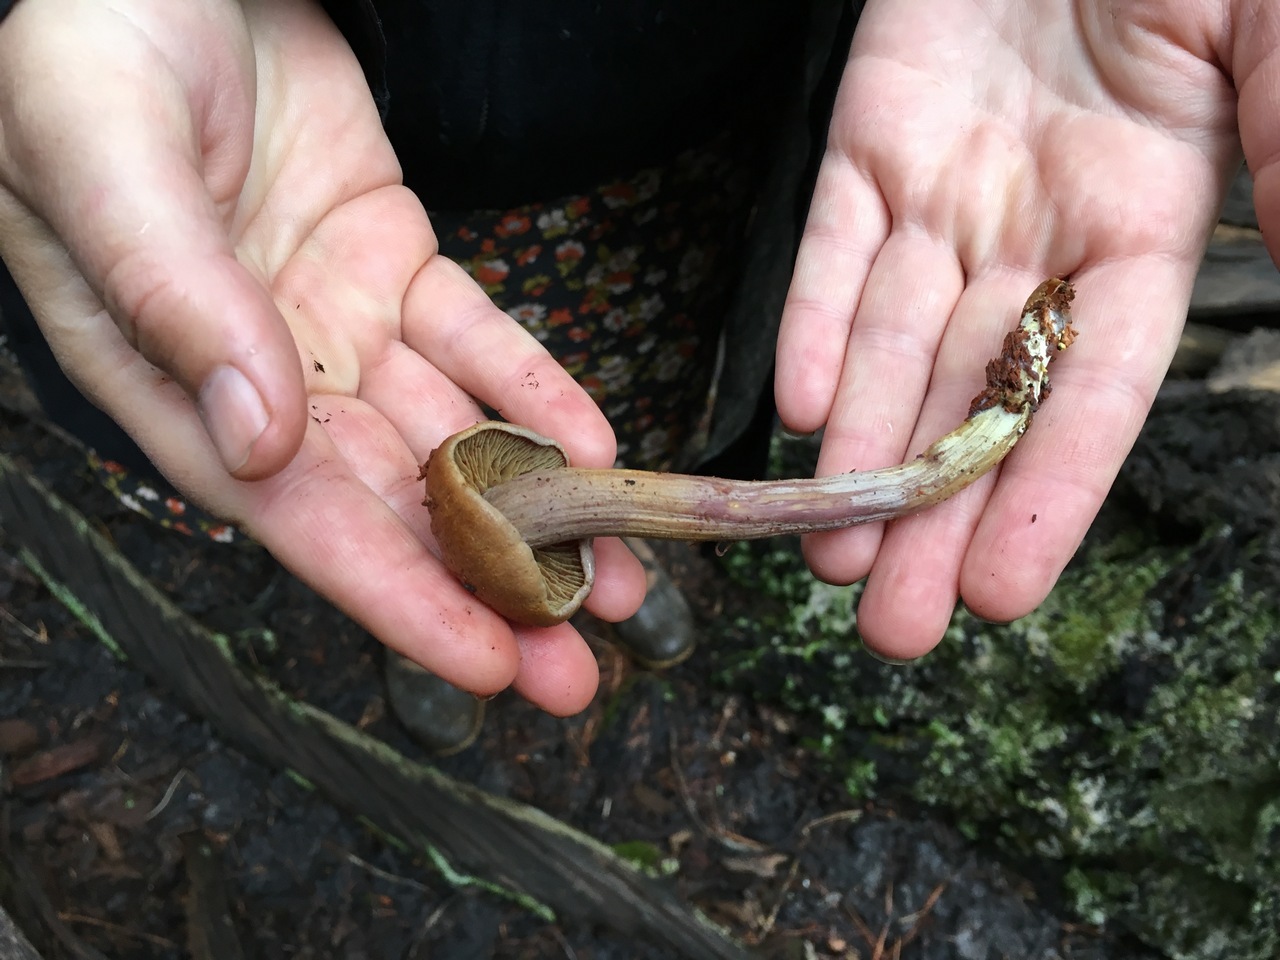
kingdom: Fungi
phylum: Basidiomycota
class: Agaricomycetes
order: Agaricales
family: Hymenogastraceae
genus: Gymnopilus
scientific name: Gymnopilus punctifolius
